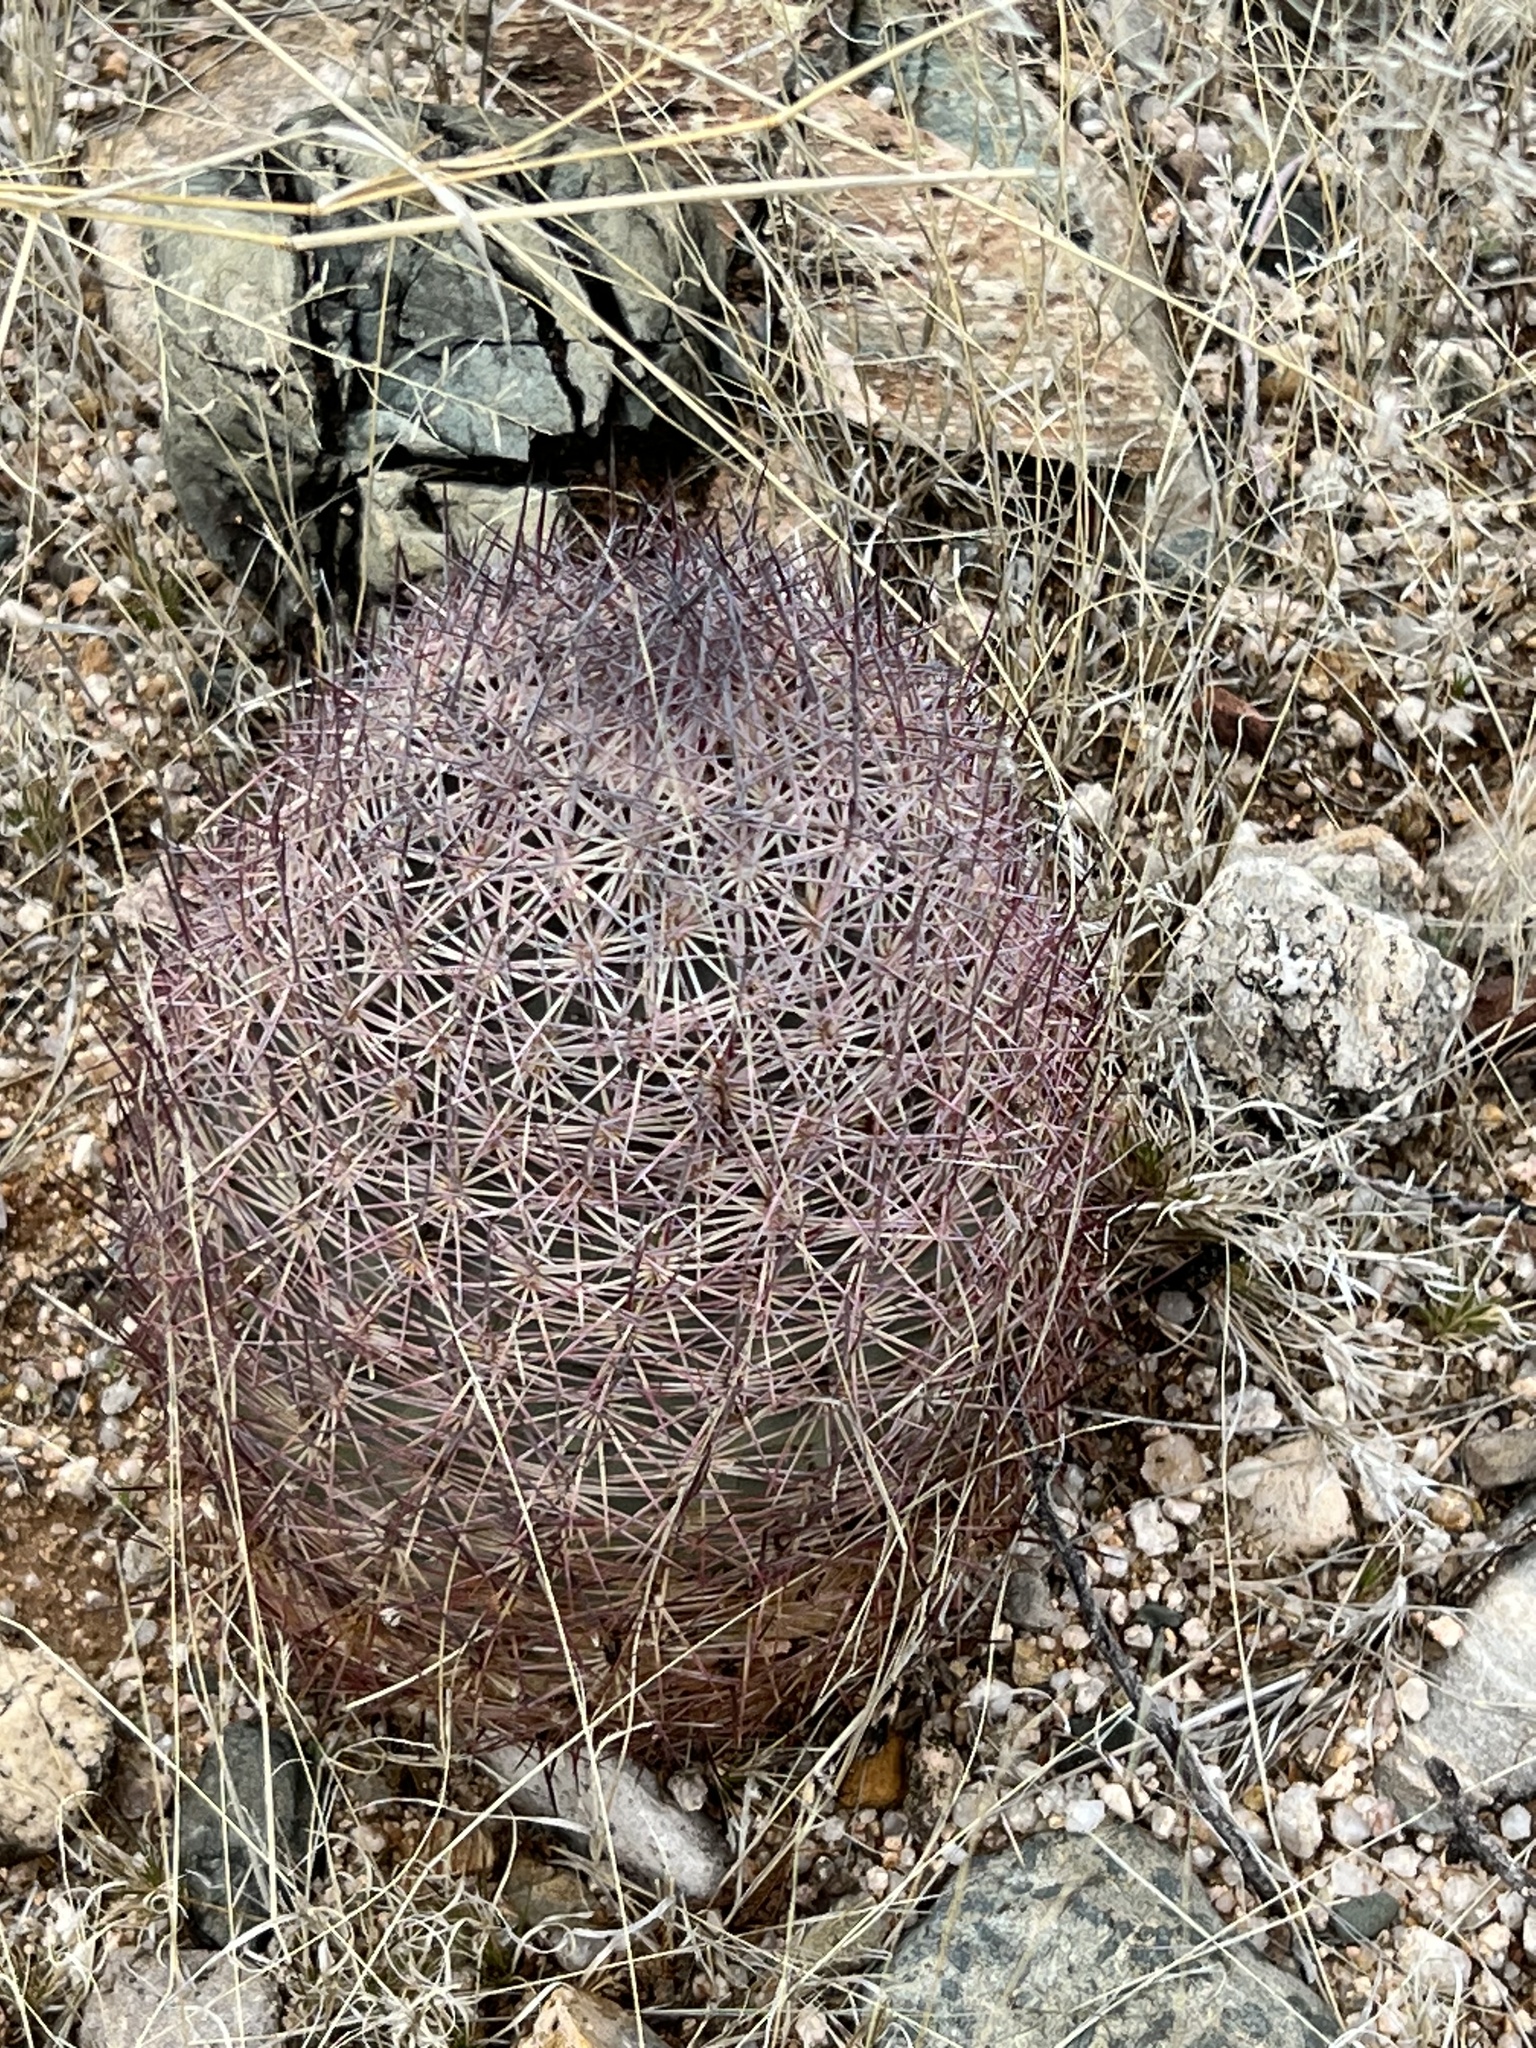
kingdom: Plantae
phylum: Tracheophyta
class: Magnoliopsida
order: Caryophyllales
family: Cactaceae
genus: Sclerocactus
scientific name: Sclerocactus johnsonii
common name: Eight-spine fishhook cactus
